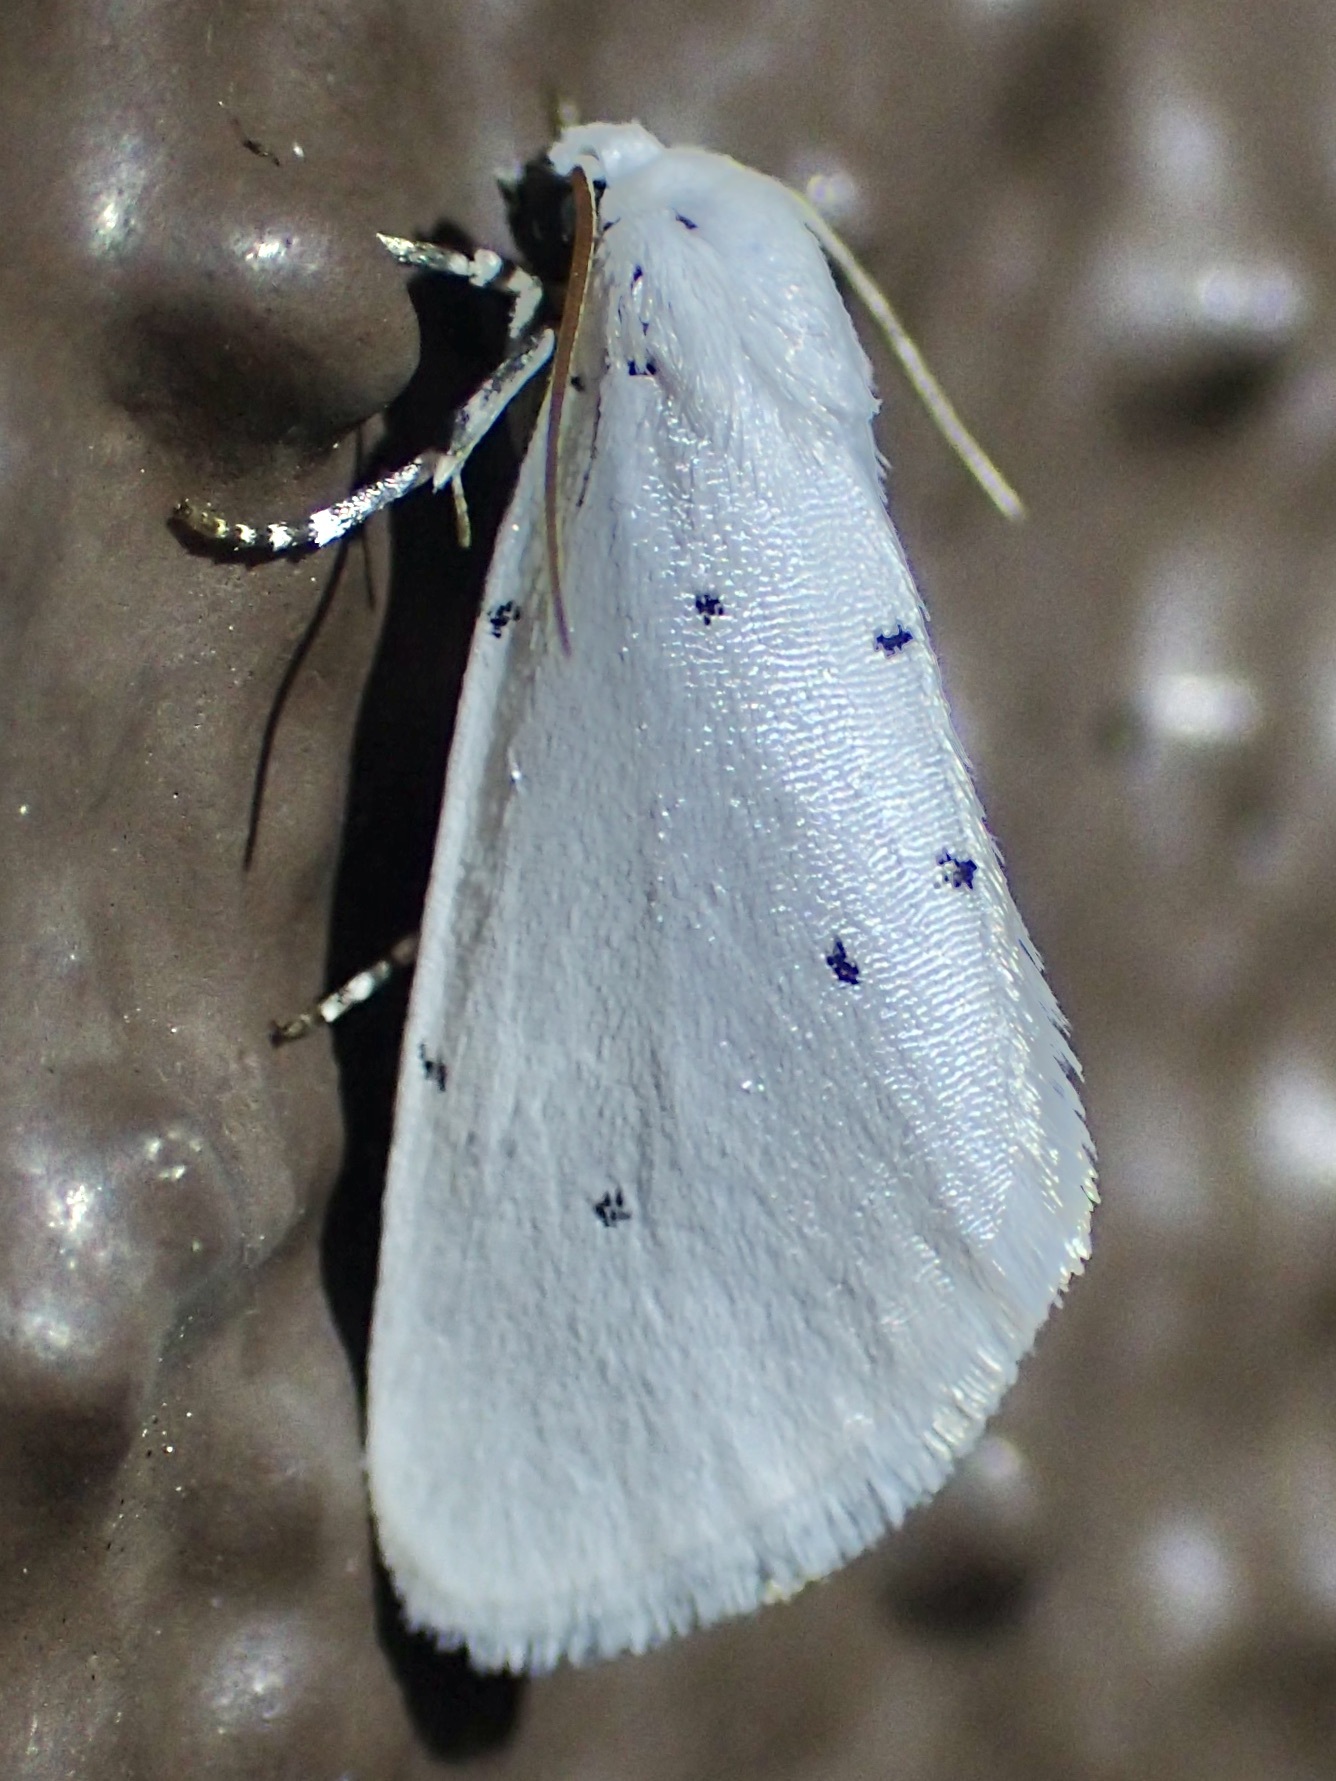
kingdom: Animalia
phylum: Arthropoda
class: Insecta
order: Lepidoptera
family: Noctuidae
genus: Grotella
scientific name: Grotella blanca
